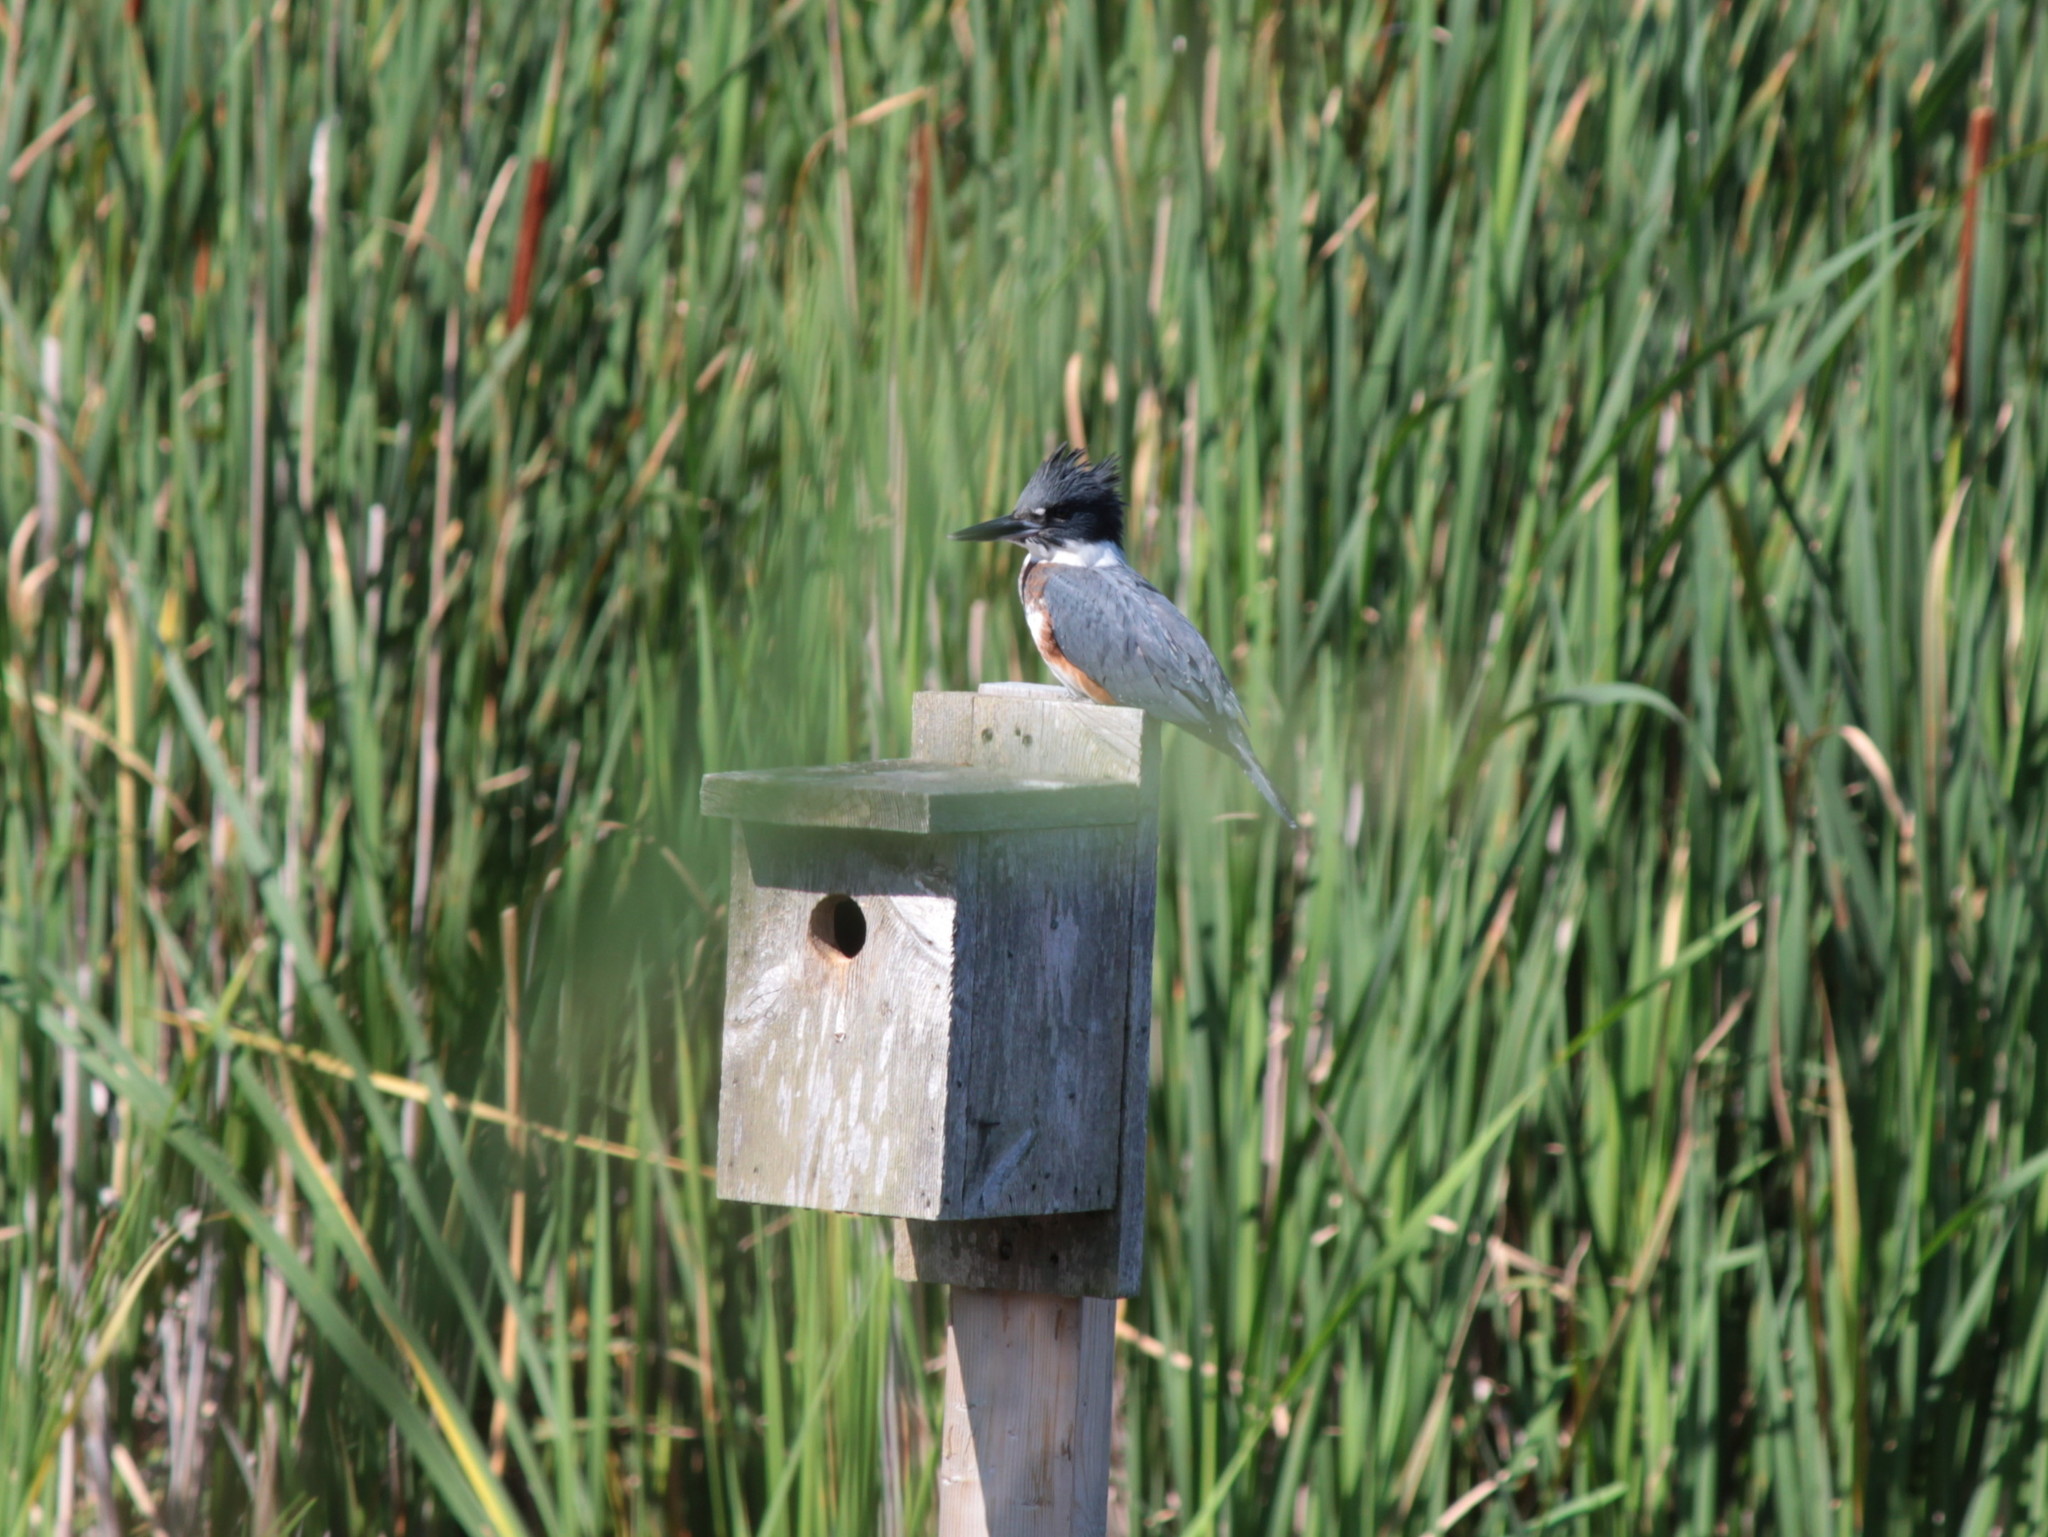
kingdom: Animalia
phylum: Chordata
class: Aves
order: Coraciiformes
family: Alcedinidae
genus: Megaceryle
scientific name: Megaceryle alcyon
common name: Belted kingfisher
